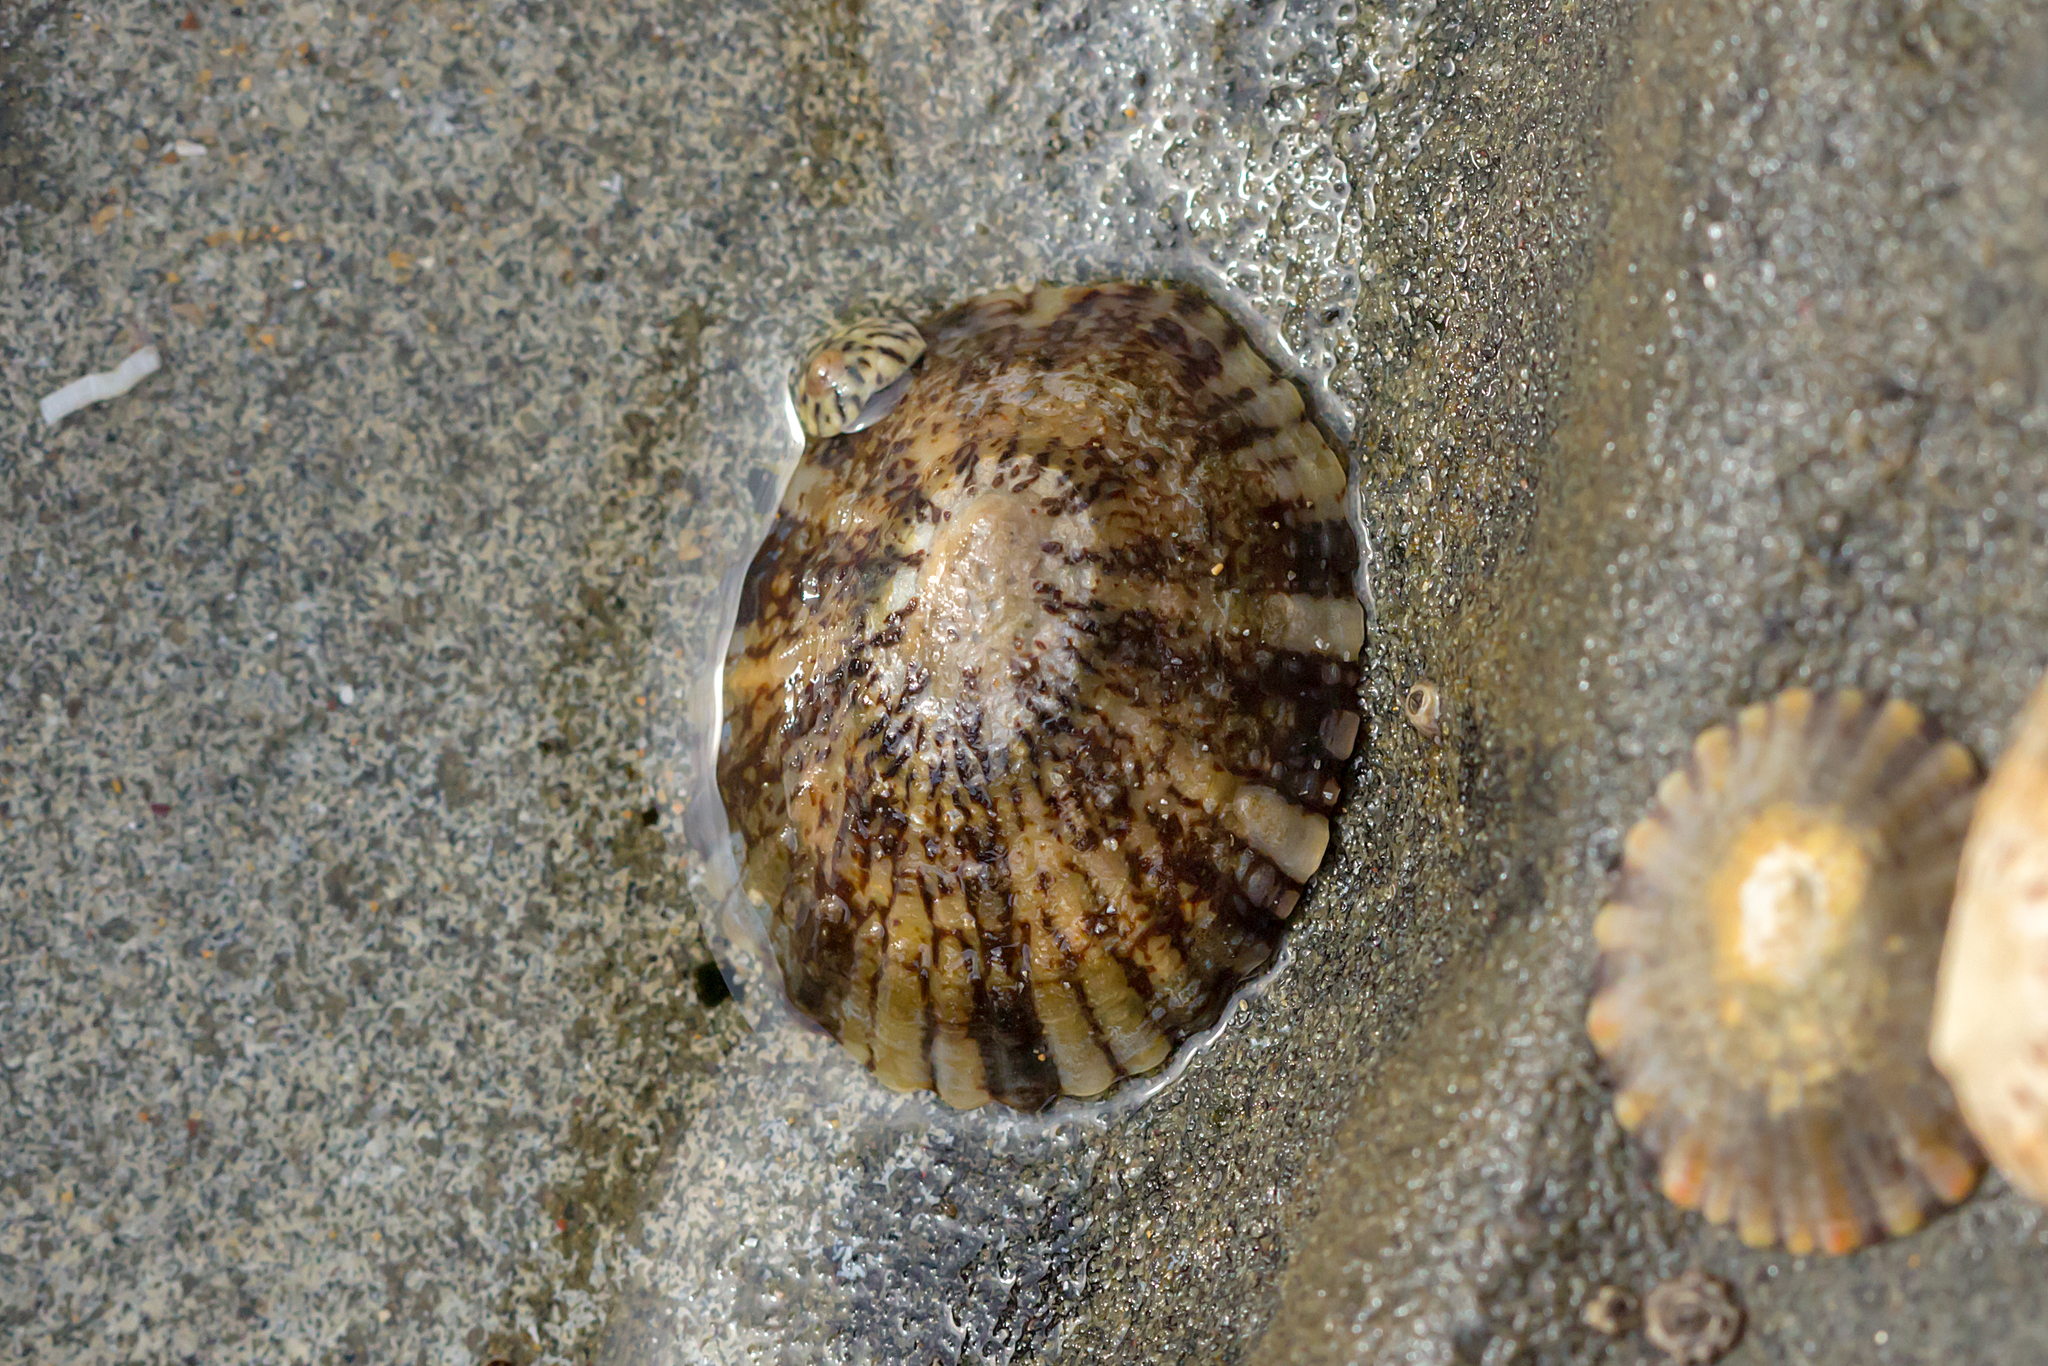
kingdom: Animalia
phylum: Mollusca
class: Gastropoda
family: Nacellidae
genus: Cellana
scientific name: Cellana tramoserica
